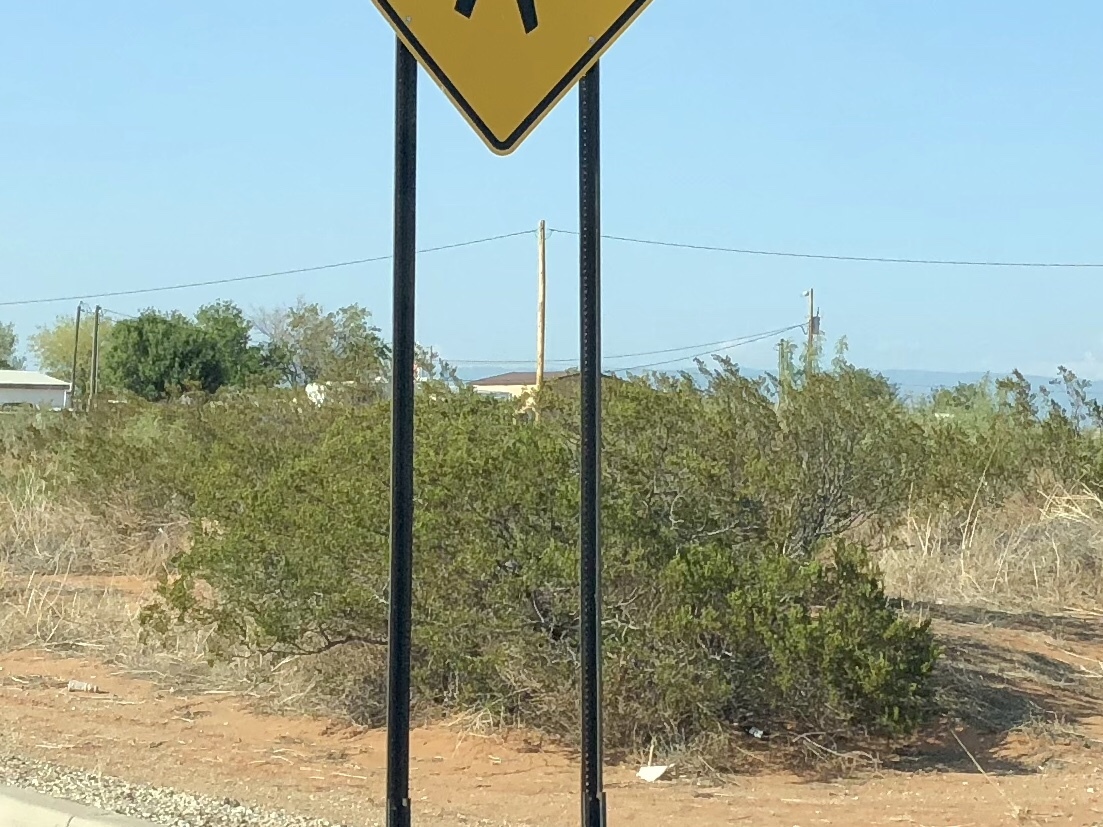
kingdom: Plantae
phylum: Tracheophyta
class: Magnoliopsida
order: Zygophyllales
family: Zygophyllaceae
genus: Larrea
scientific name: Larrea tridentata
